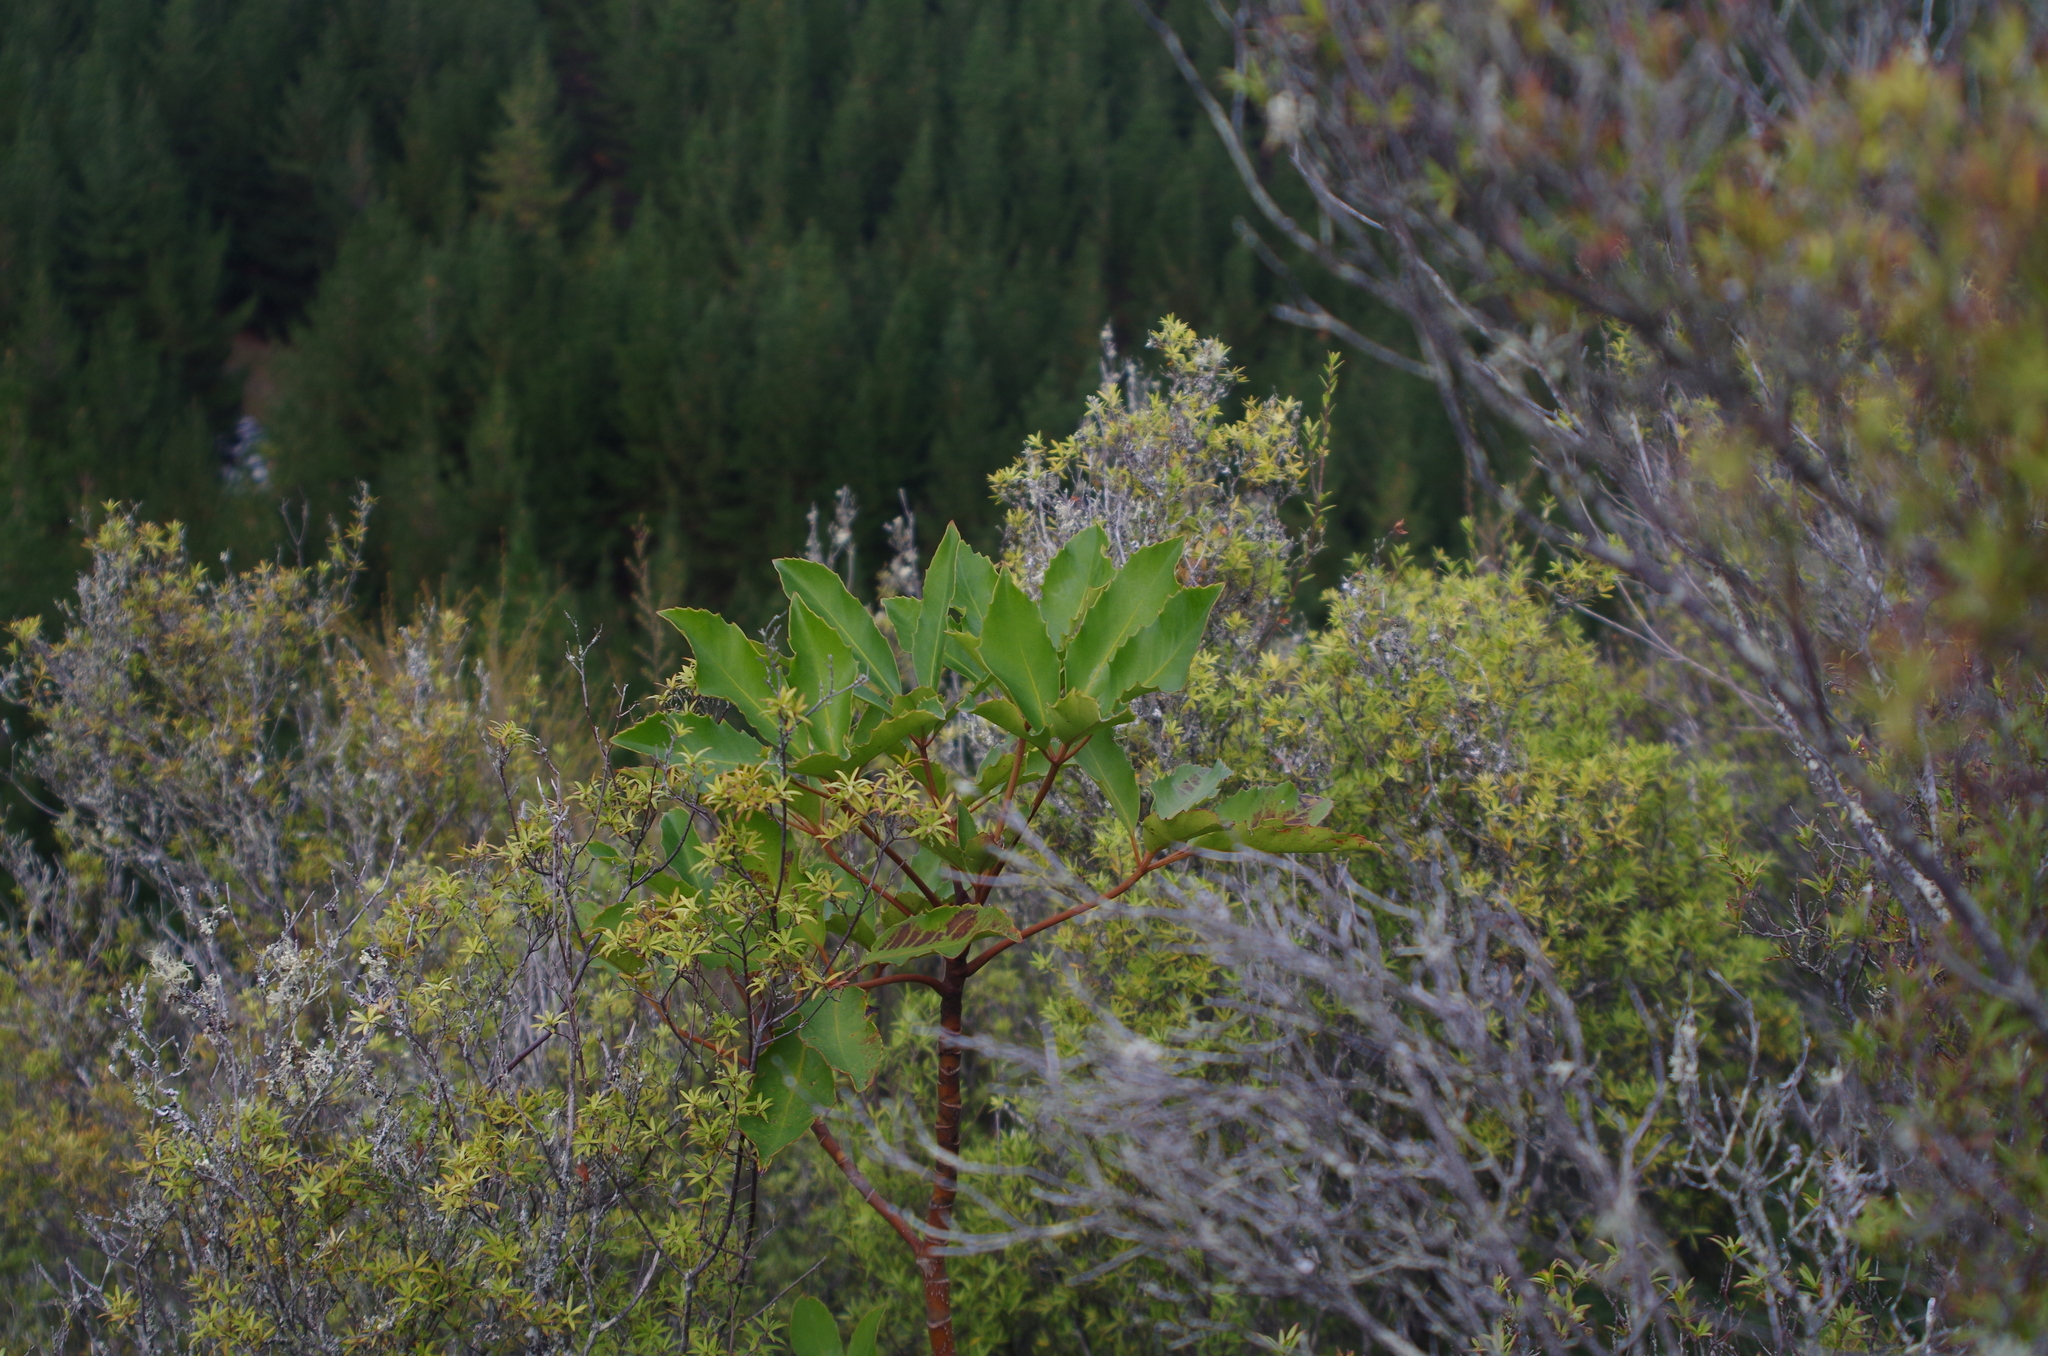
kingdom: Plantae
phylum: Tracheophyta
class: Magnoliopsida
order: Apiales
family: Araliaceae
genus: Neopanax
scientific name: Neopanax arboreus
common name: Five-fingers
